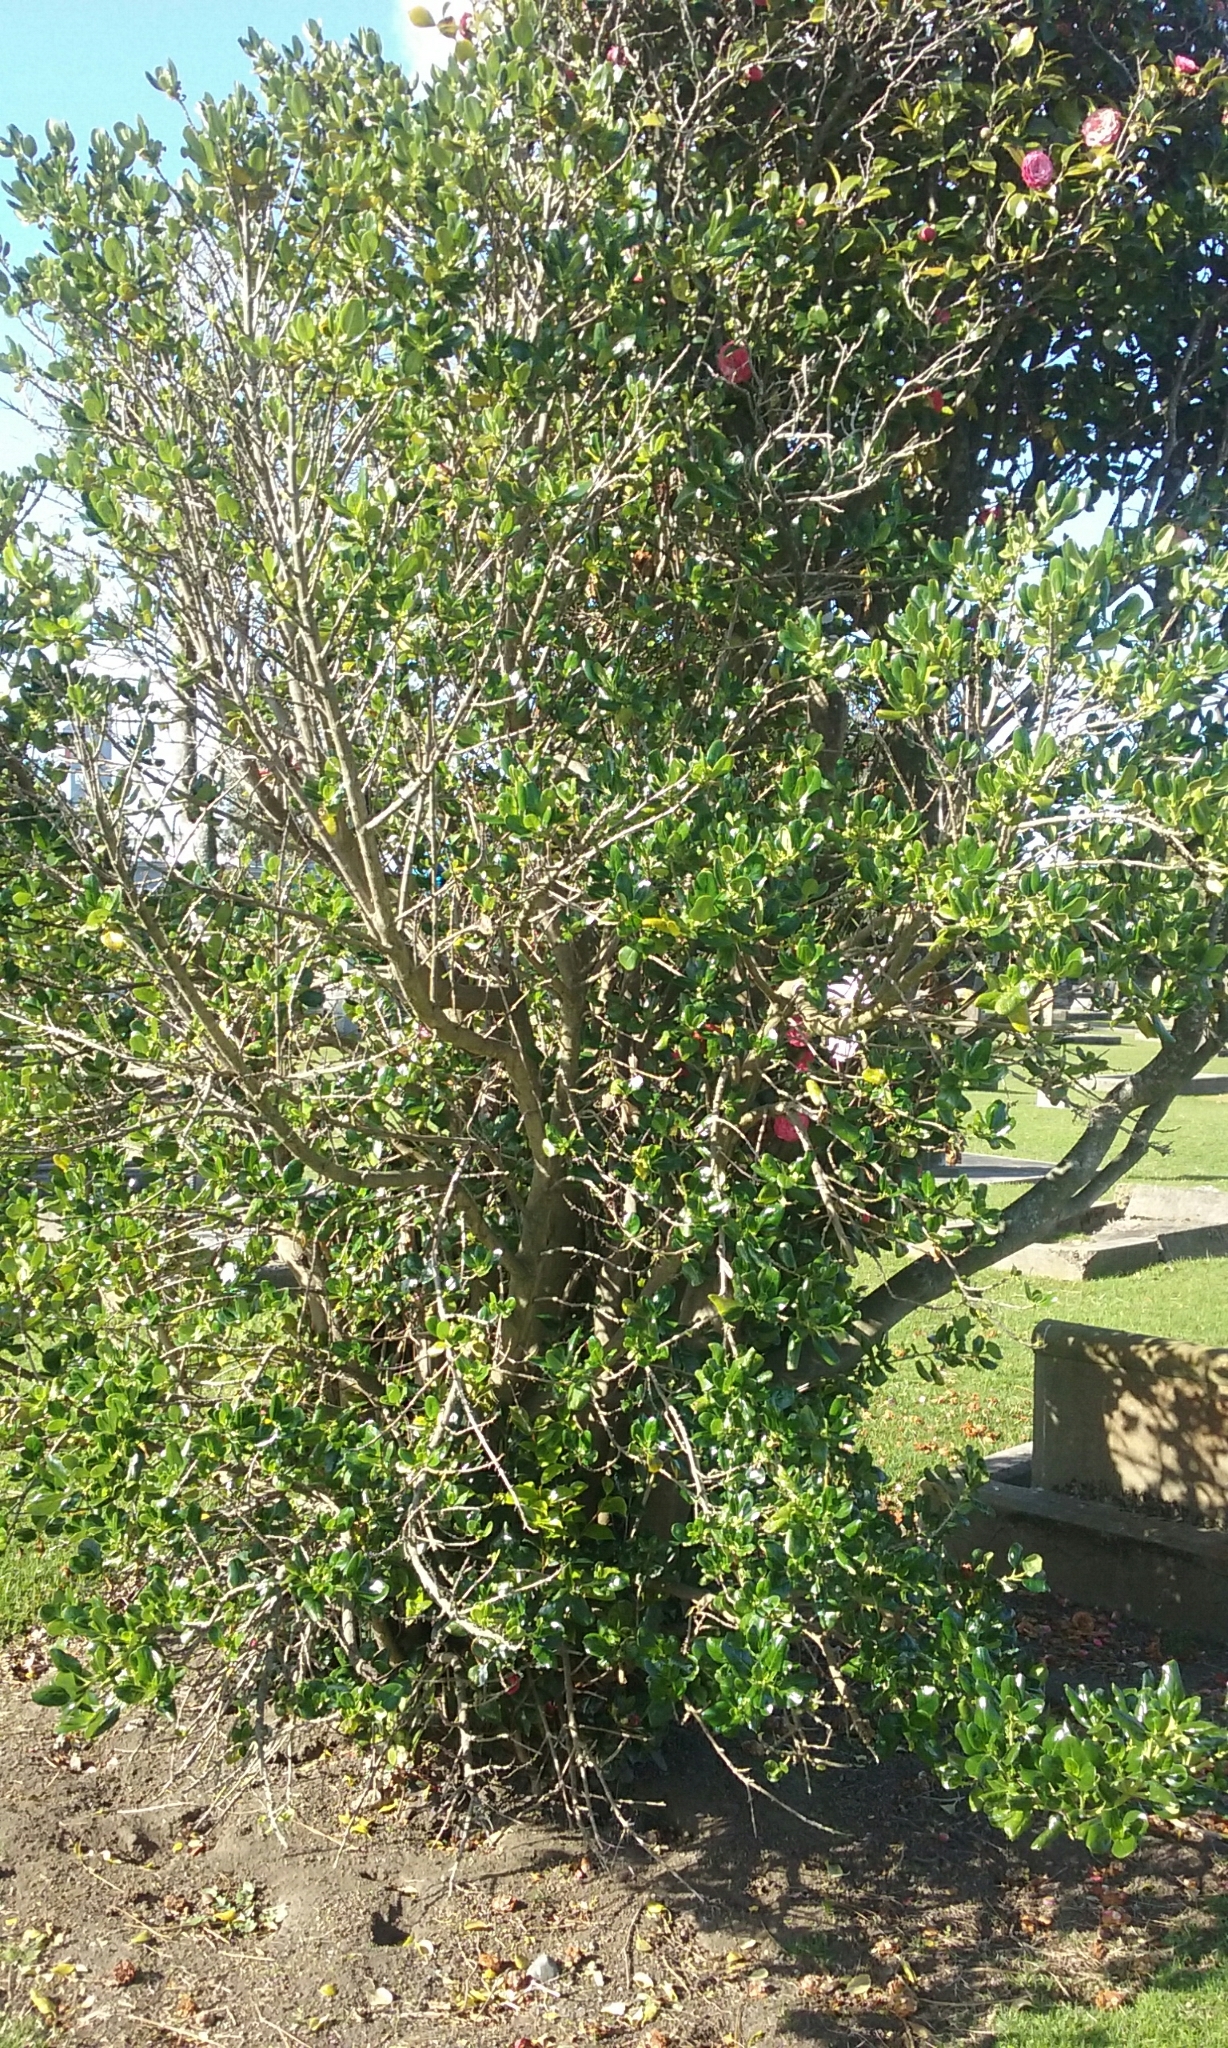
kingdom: Plantae
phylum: Tracheophyta
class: Magnoliopsida
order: Gentianales
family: Rubiaceae
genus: Coprosma
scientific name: Coprosma repens
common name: Tree bedstraw
